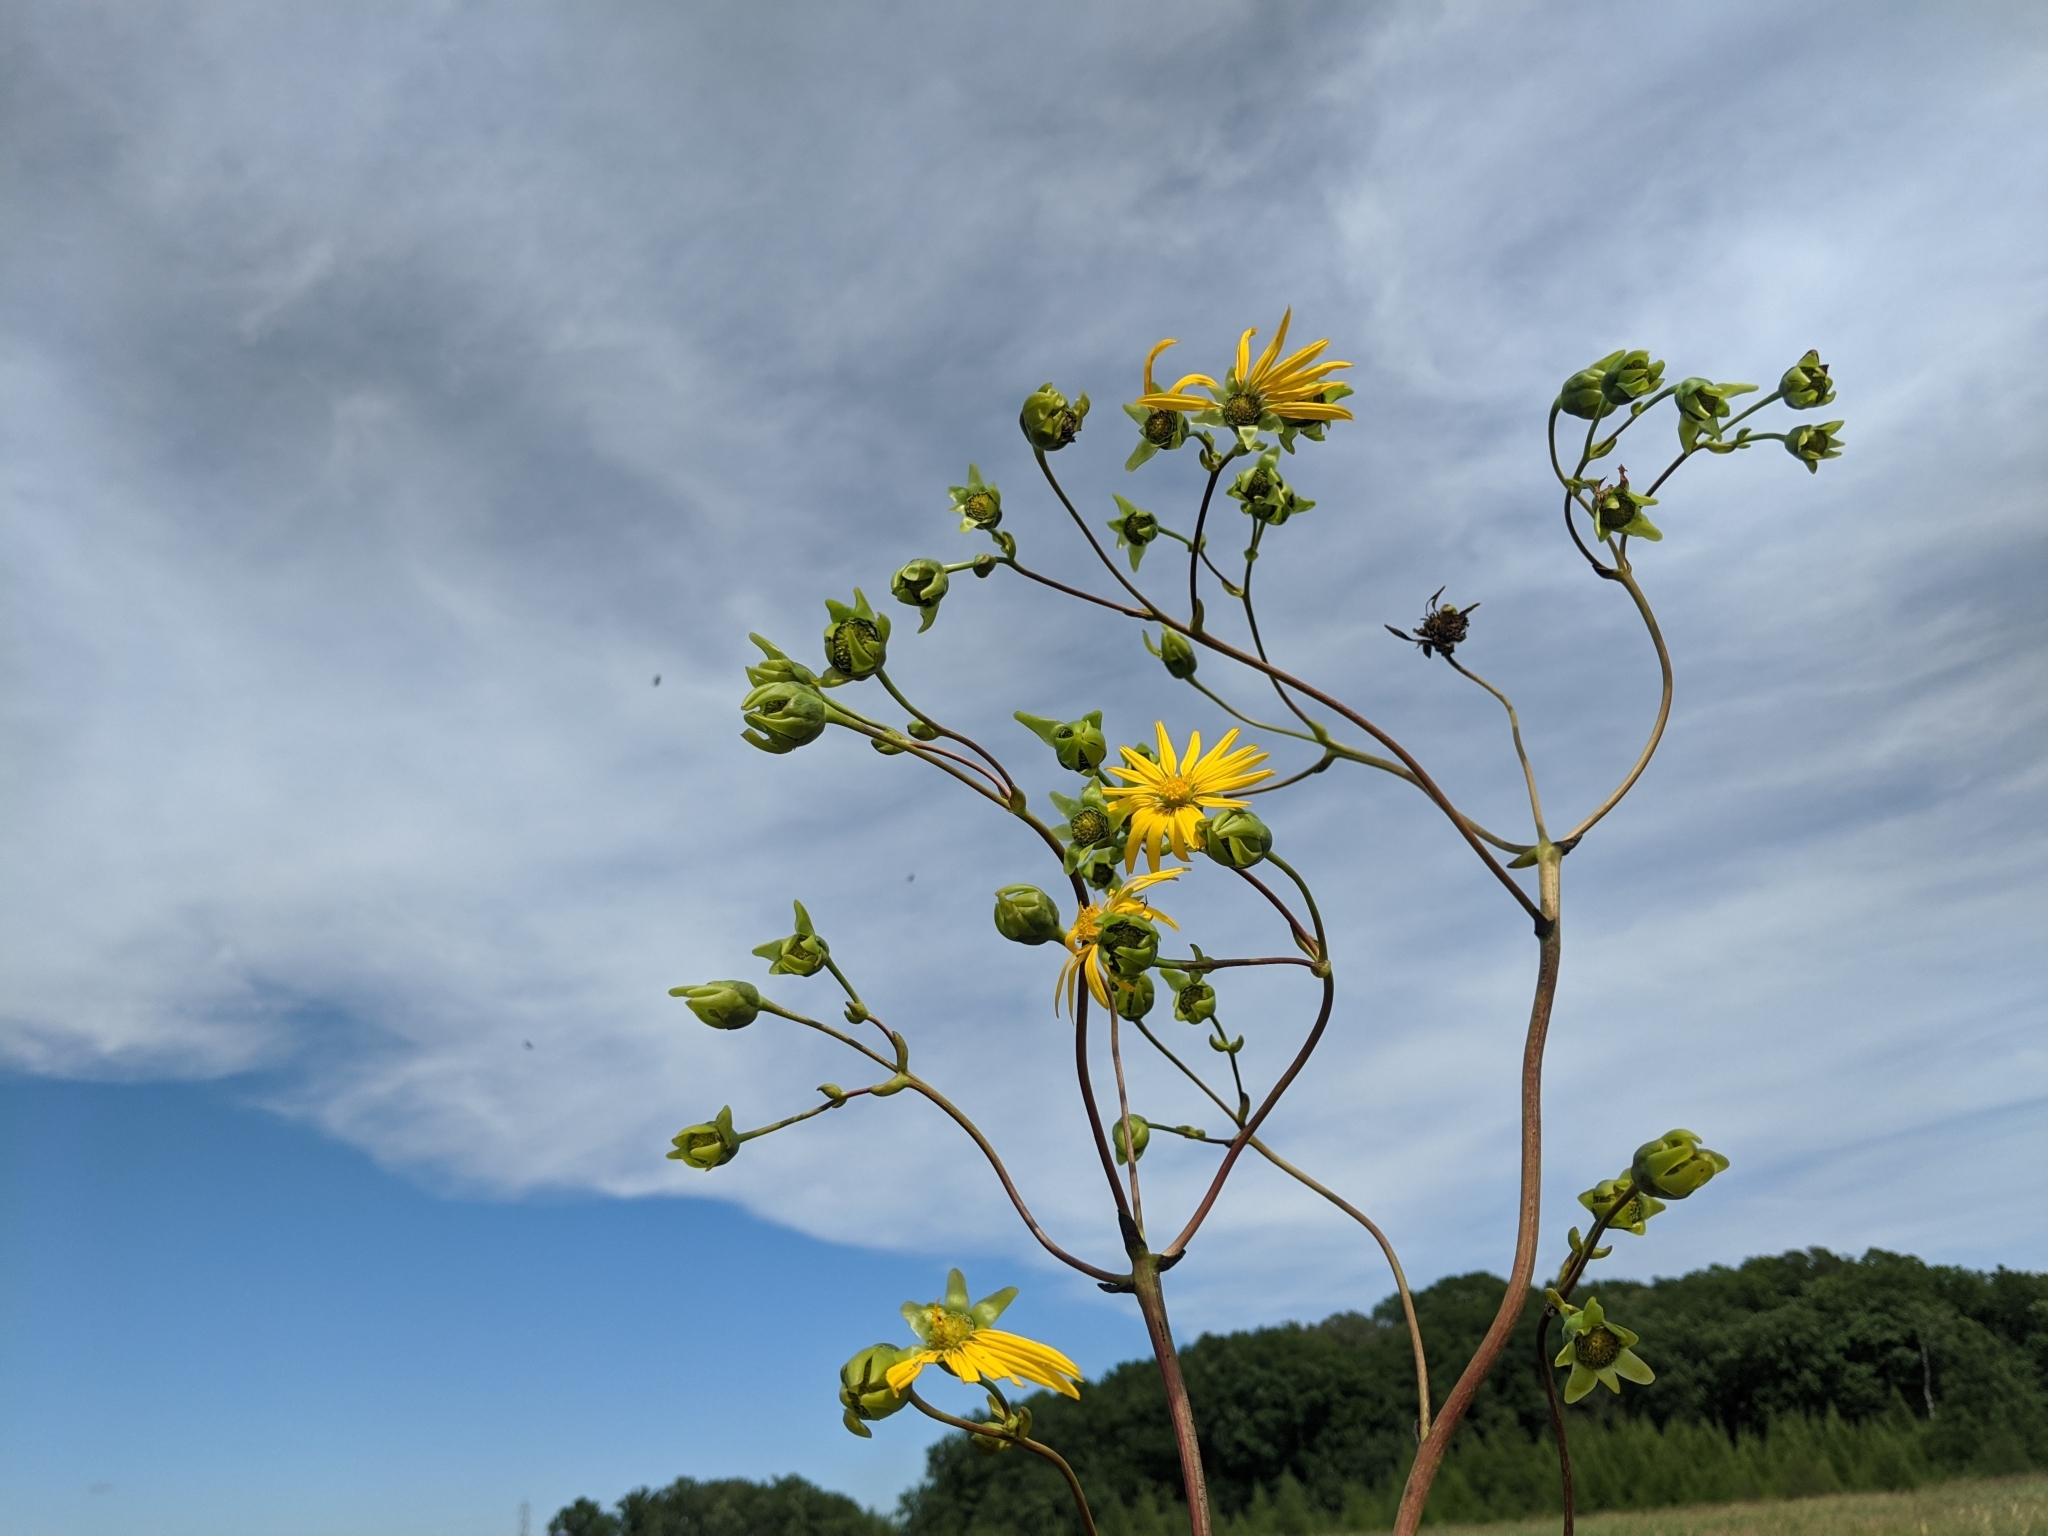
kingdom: Plantae
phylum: Tracheophyta
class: Magnoliopsida
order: Asterales
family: Asteraceae
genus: Silphium
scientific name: Silphium terebinthinaceum
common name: Basal-leaf rosinweed
